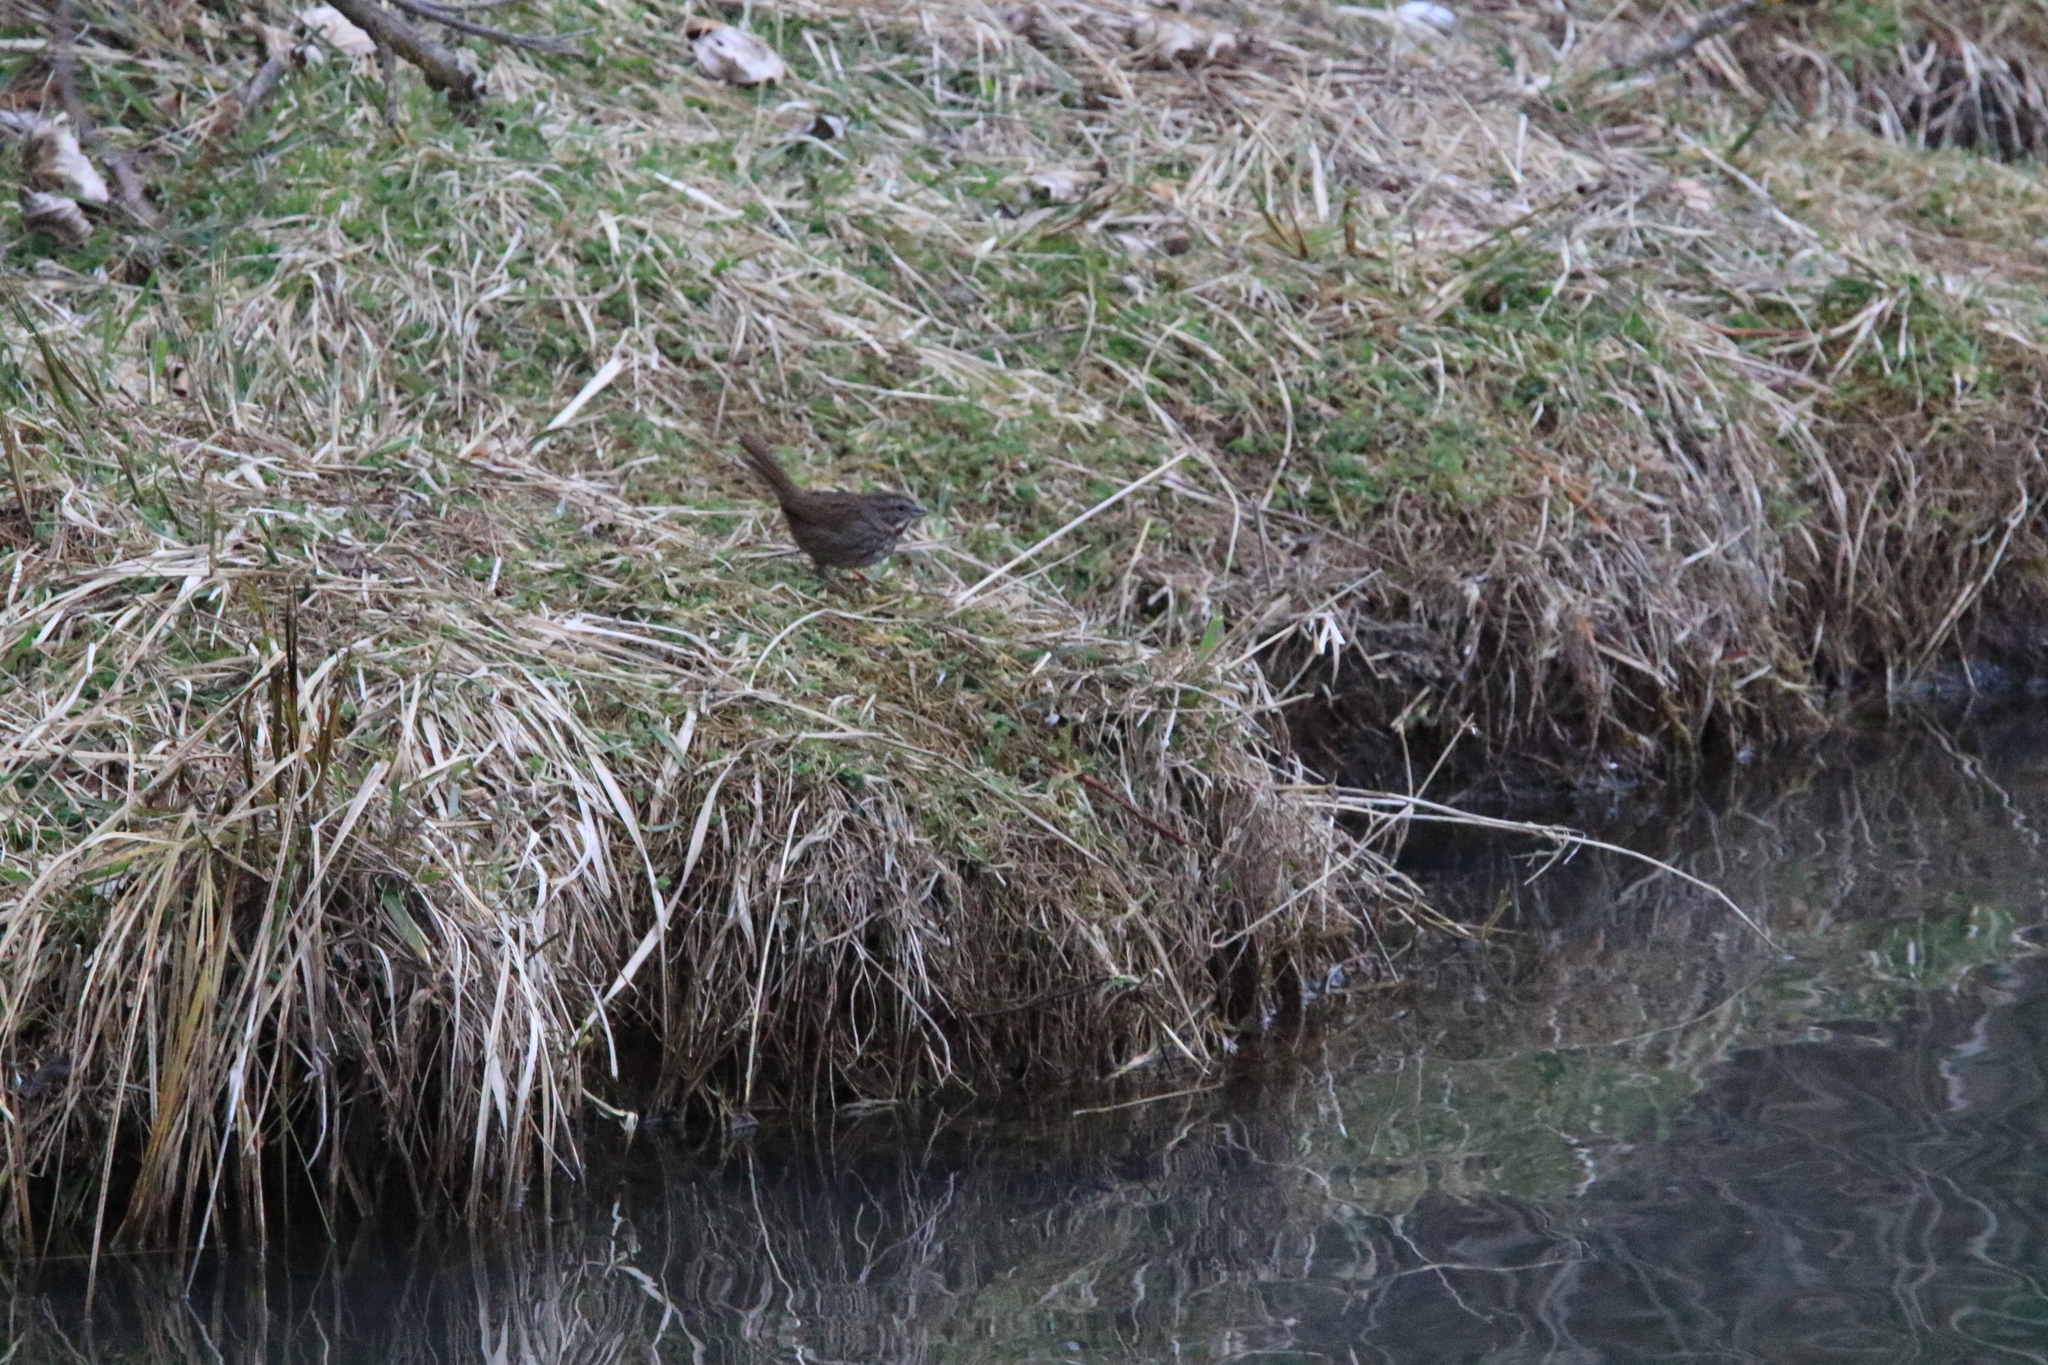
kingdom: Animalia
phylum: Chordata
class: Aves
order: Passeriformes
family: Passerellidae
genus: Melospiza
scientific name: Melospiza melodia
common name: Song sparrow
